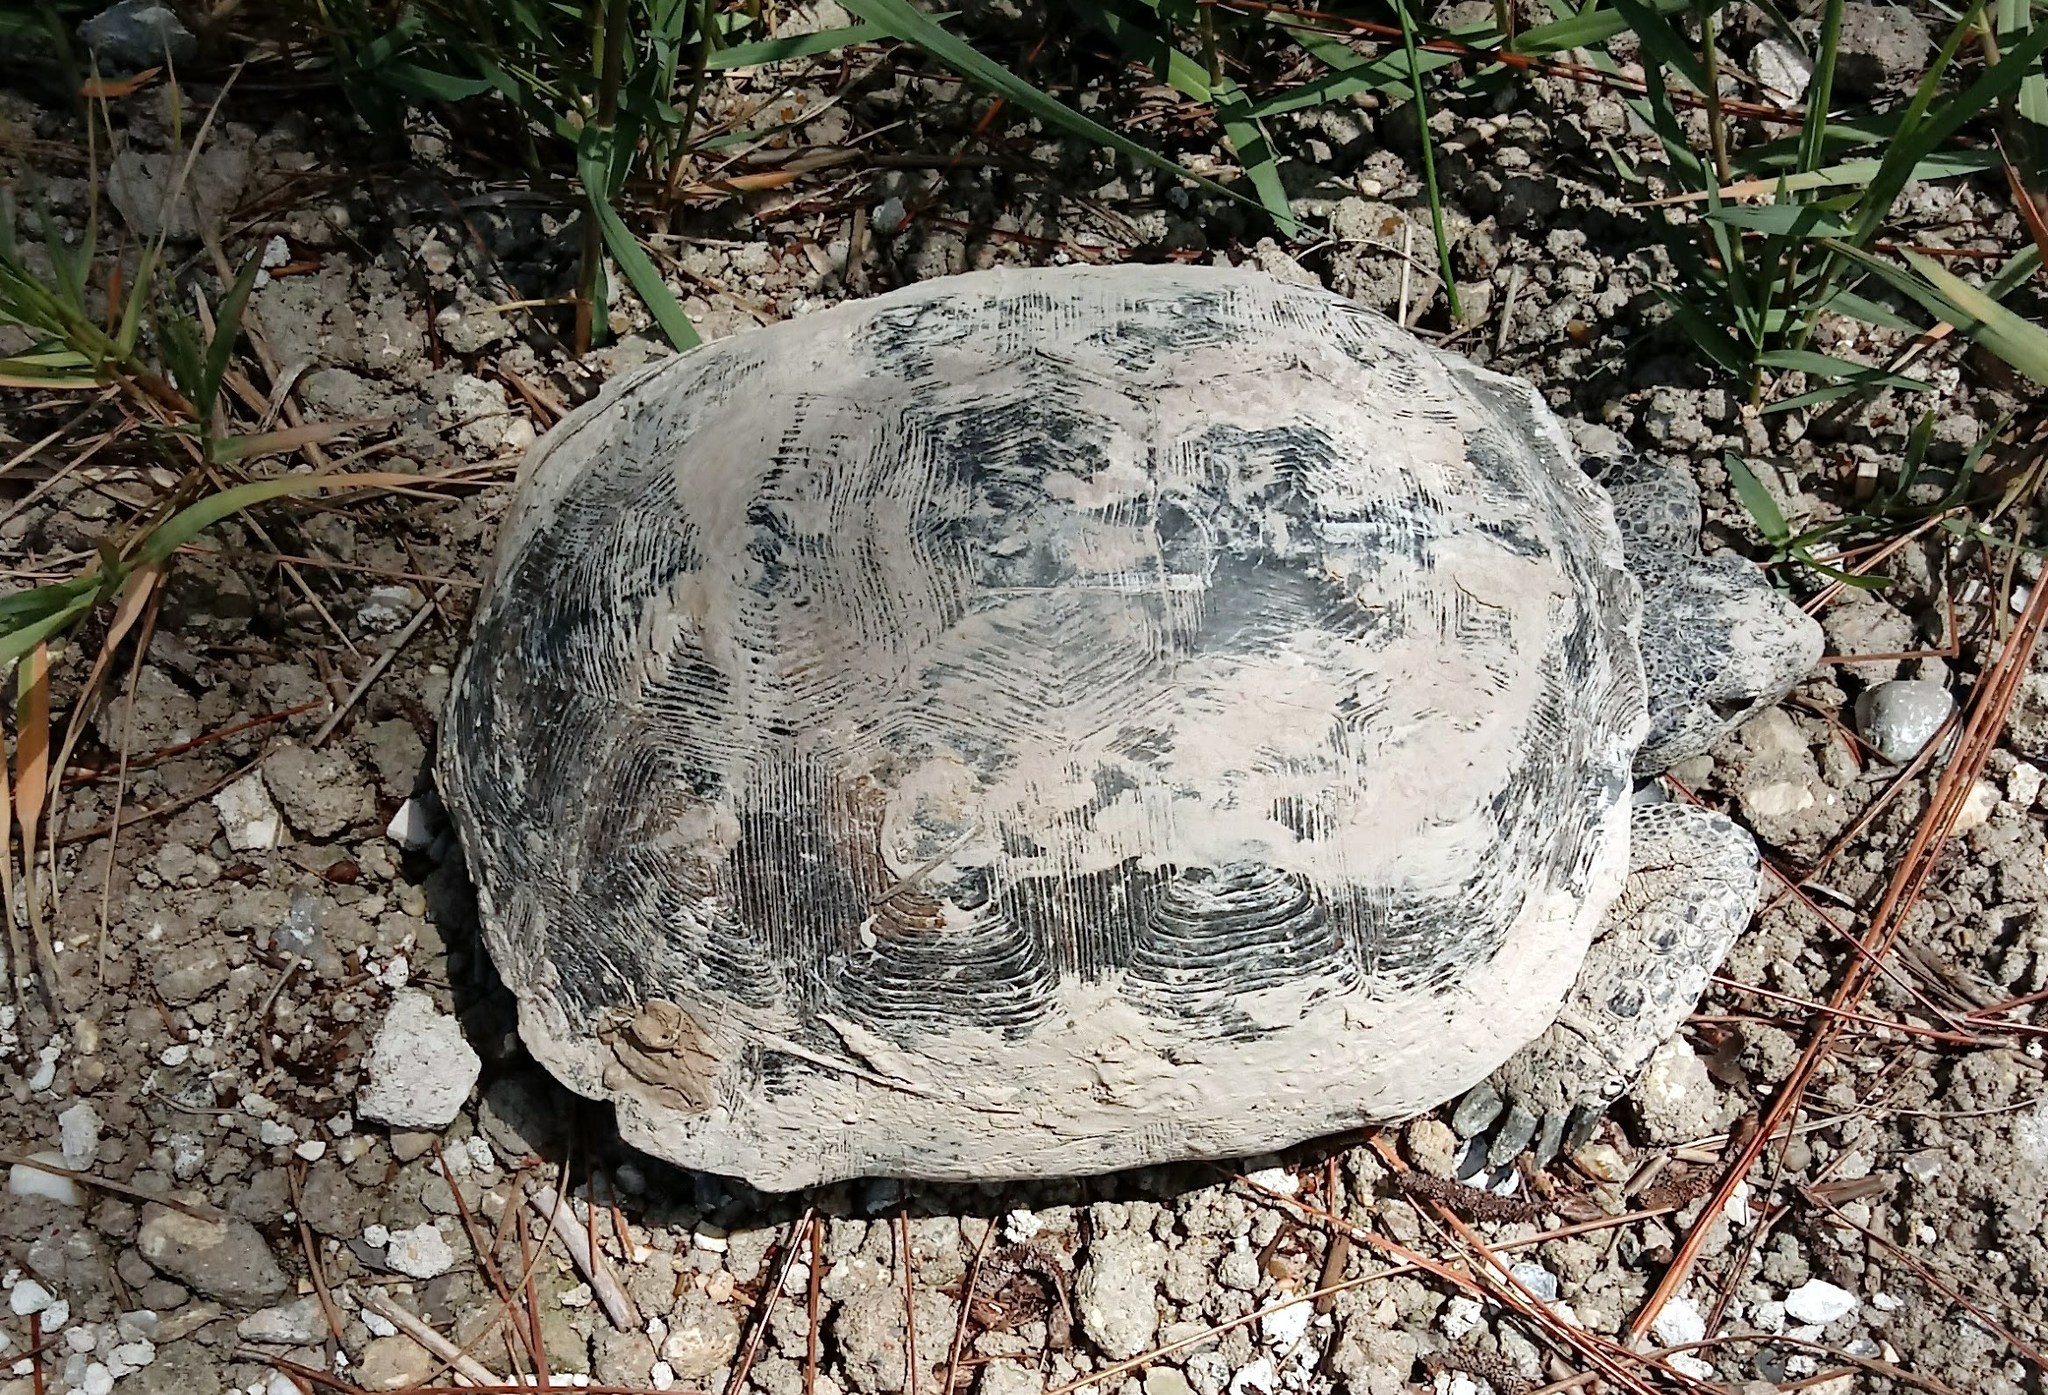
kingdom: Animalia
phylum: Chordata
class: Testudines
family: Testudinidae
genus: Gopherus
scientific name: Gopherus polyphemus
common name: Florida gopher tortoise
